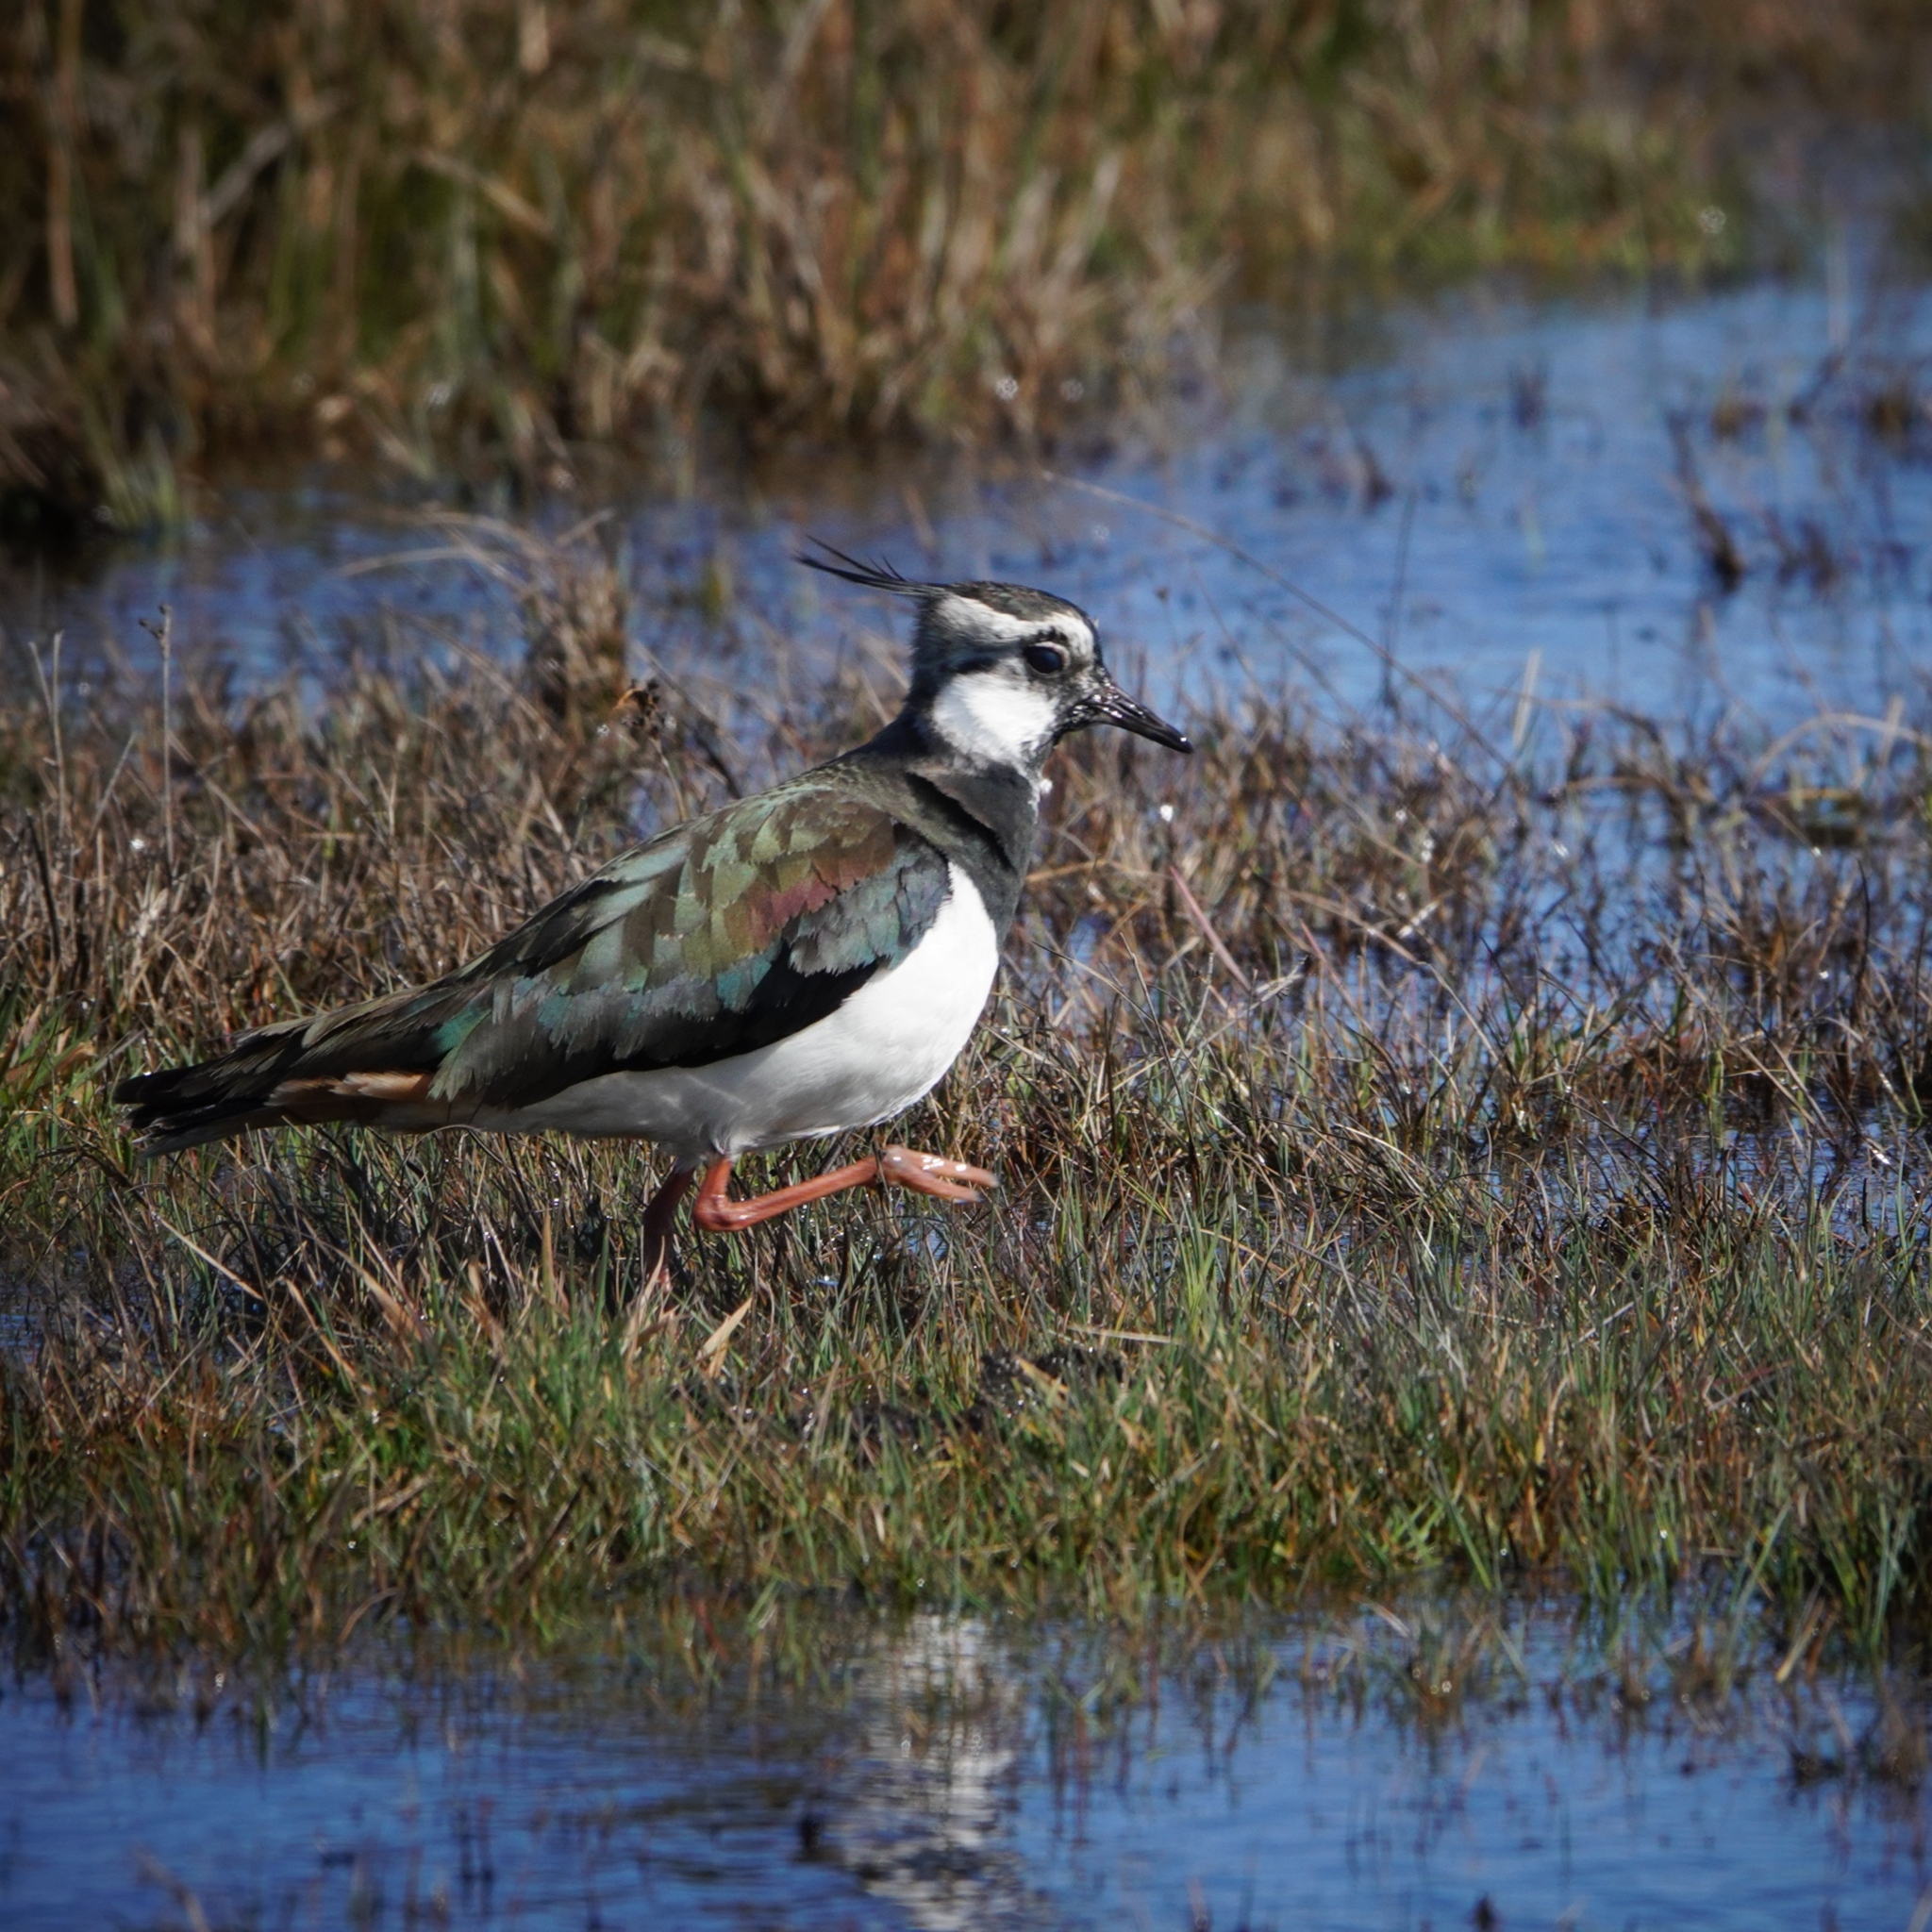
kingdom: Animalia
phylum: Chordata
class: Aves
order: Charadriiformes
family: Charadriidae
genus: Vanellus
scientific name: Vanellus vanellus
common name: Northern lapwing
